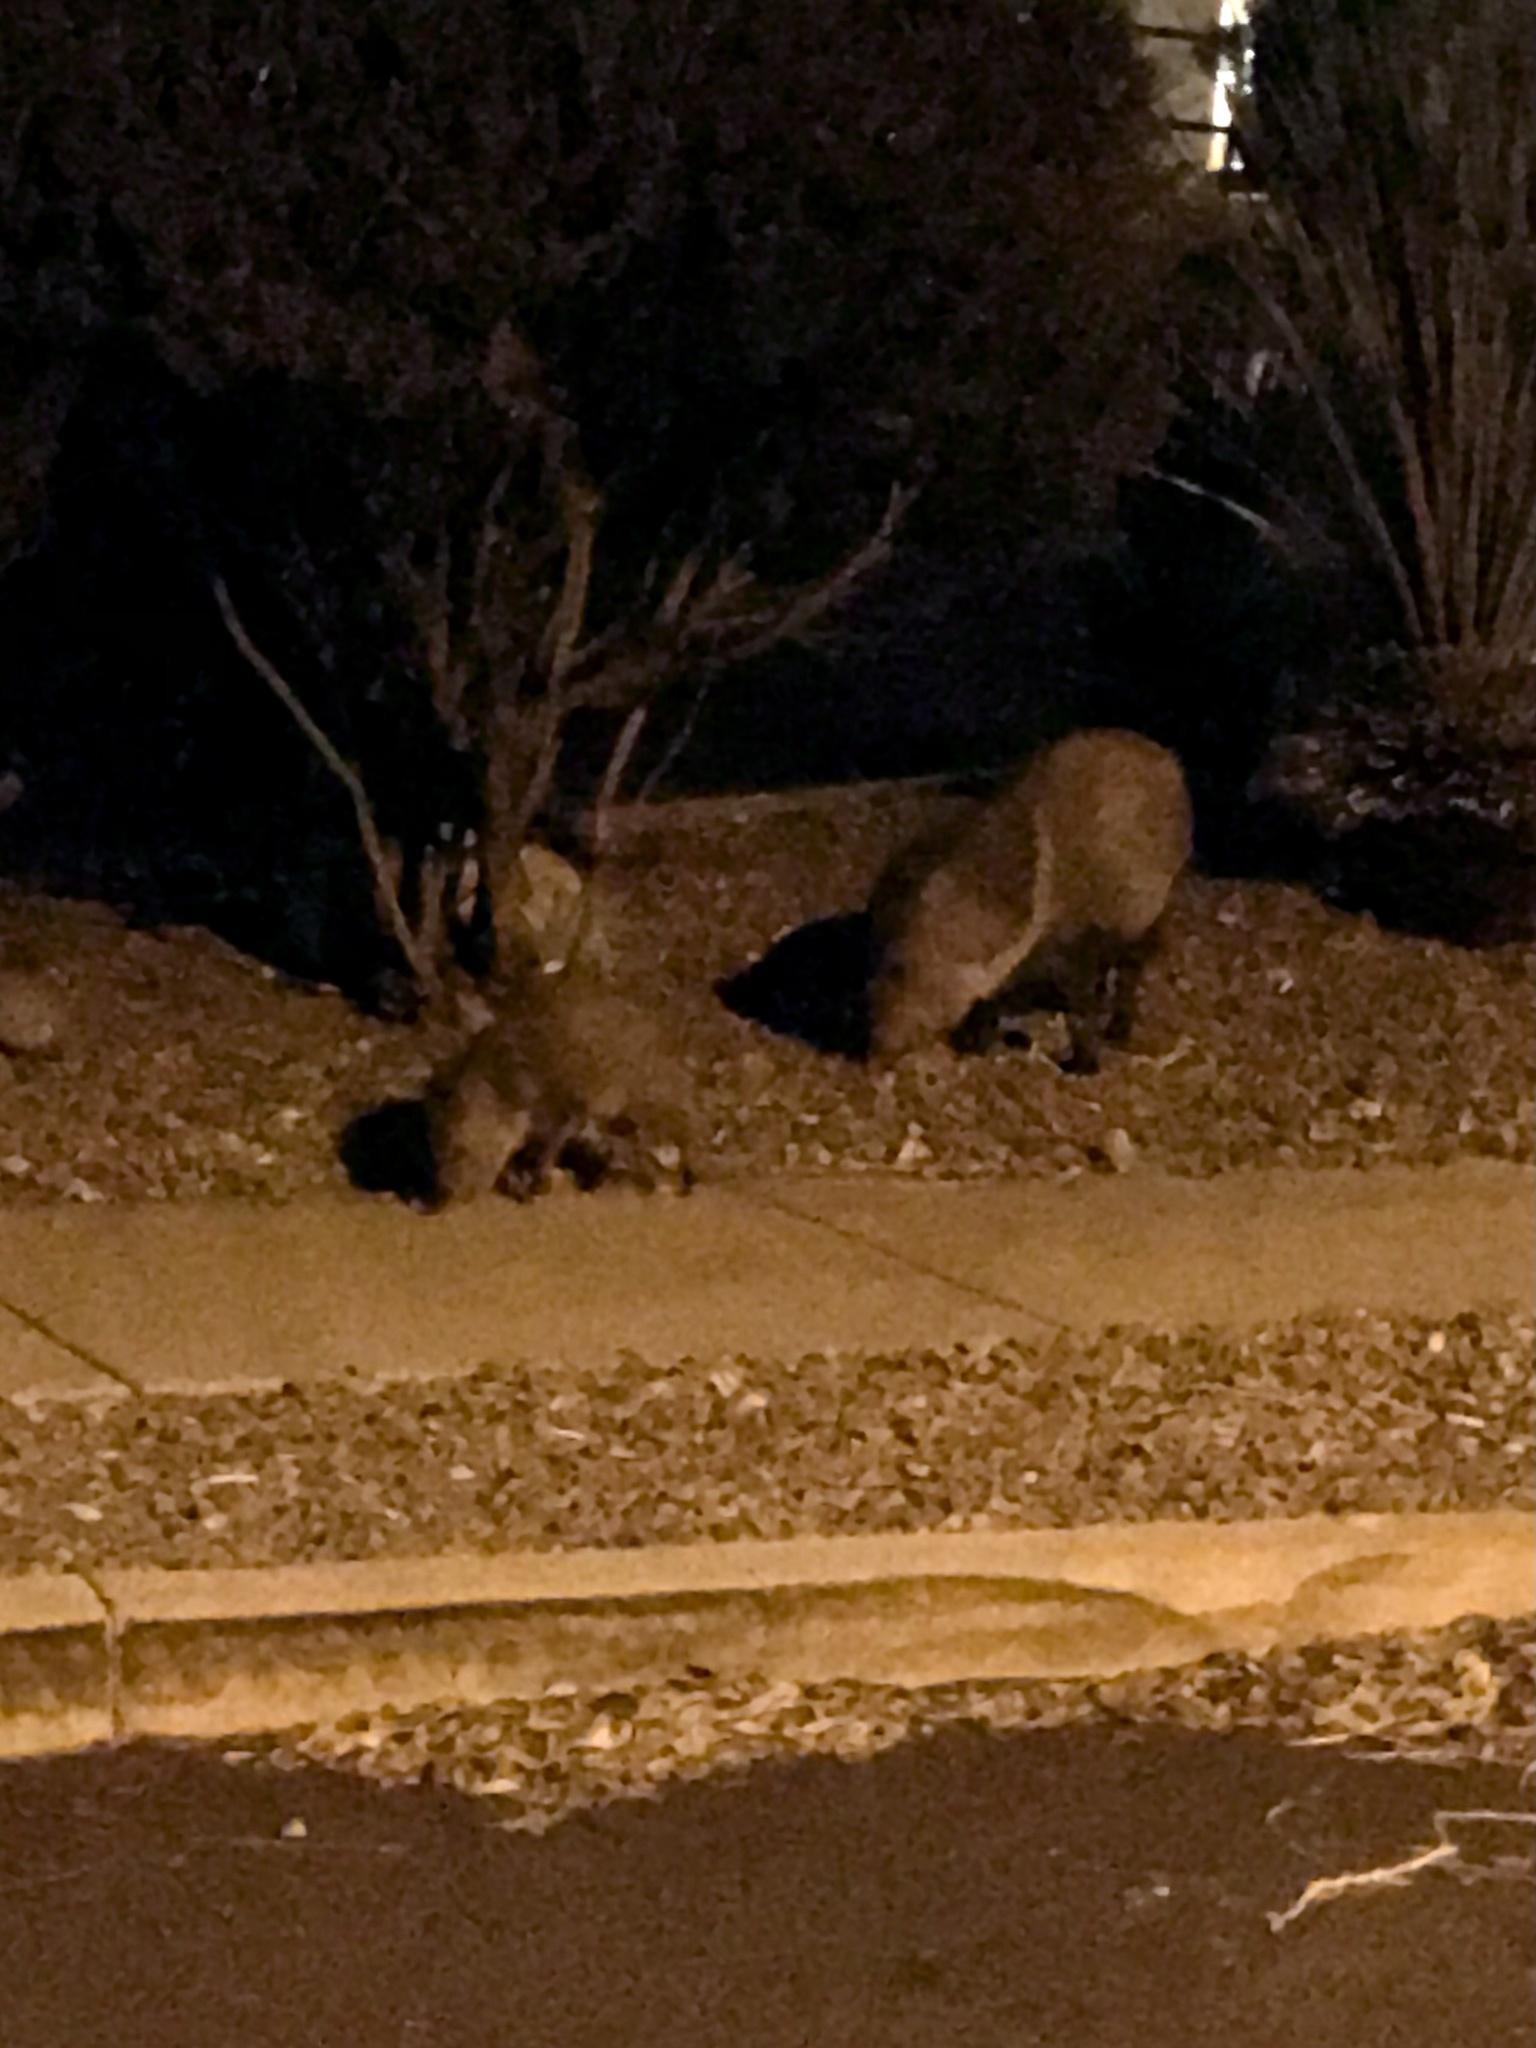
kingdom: Animalia
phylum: Chordata
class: Mammalia
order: Artiodactyla
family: Tayassuidae
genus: Pecari
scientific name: Pecari tajacu
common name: Collared peccary
